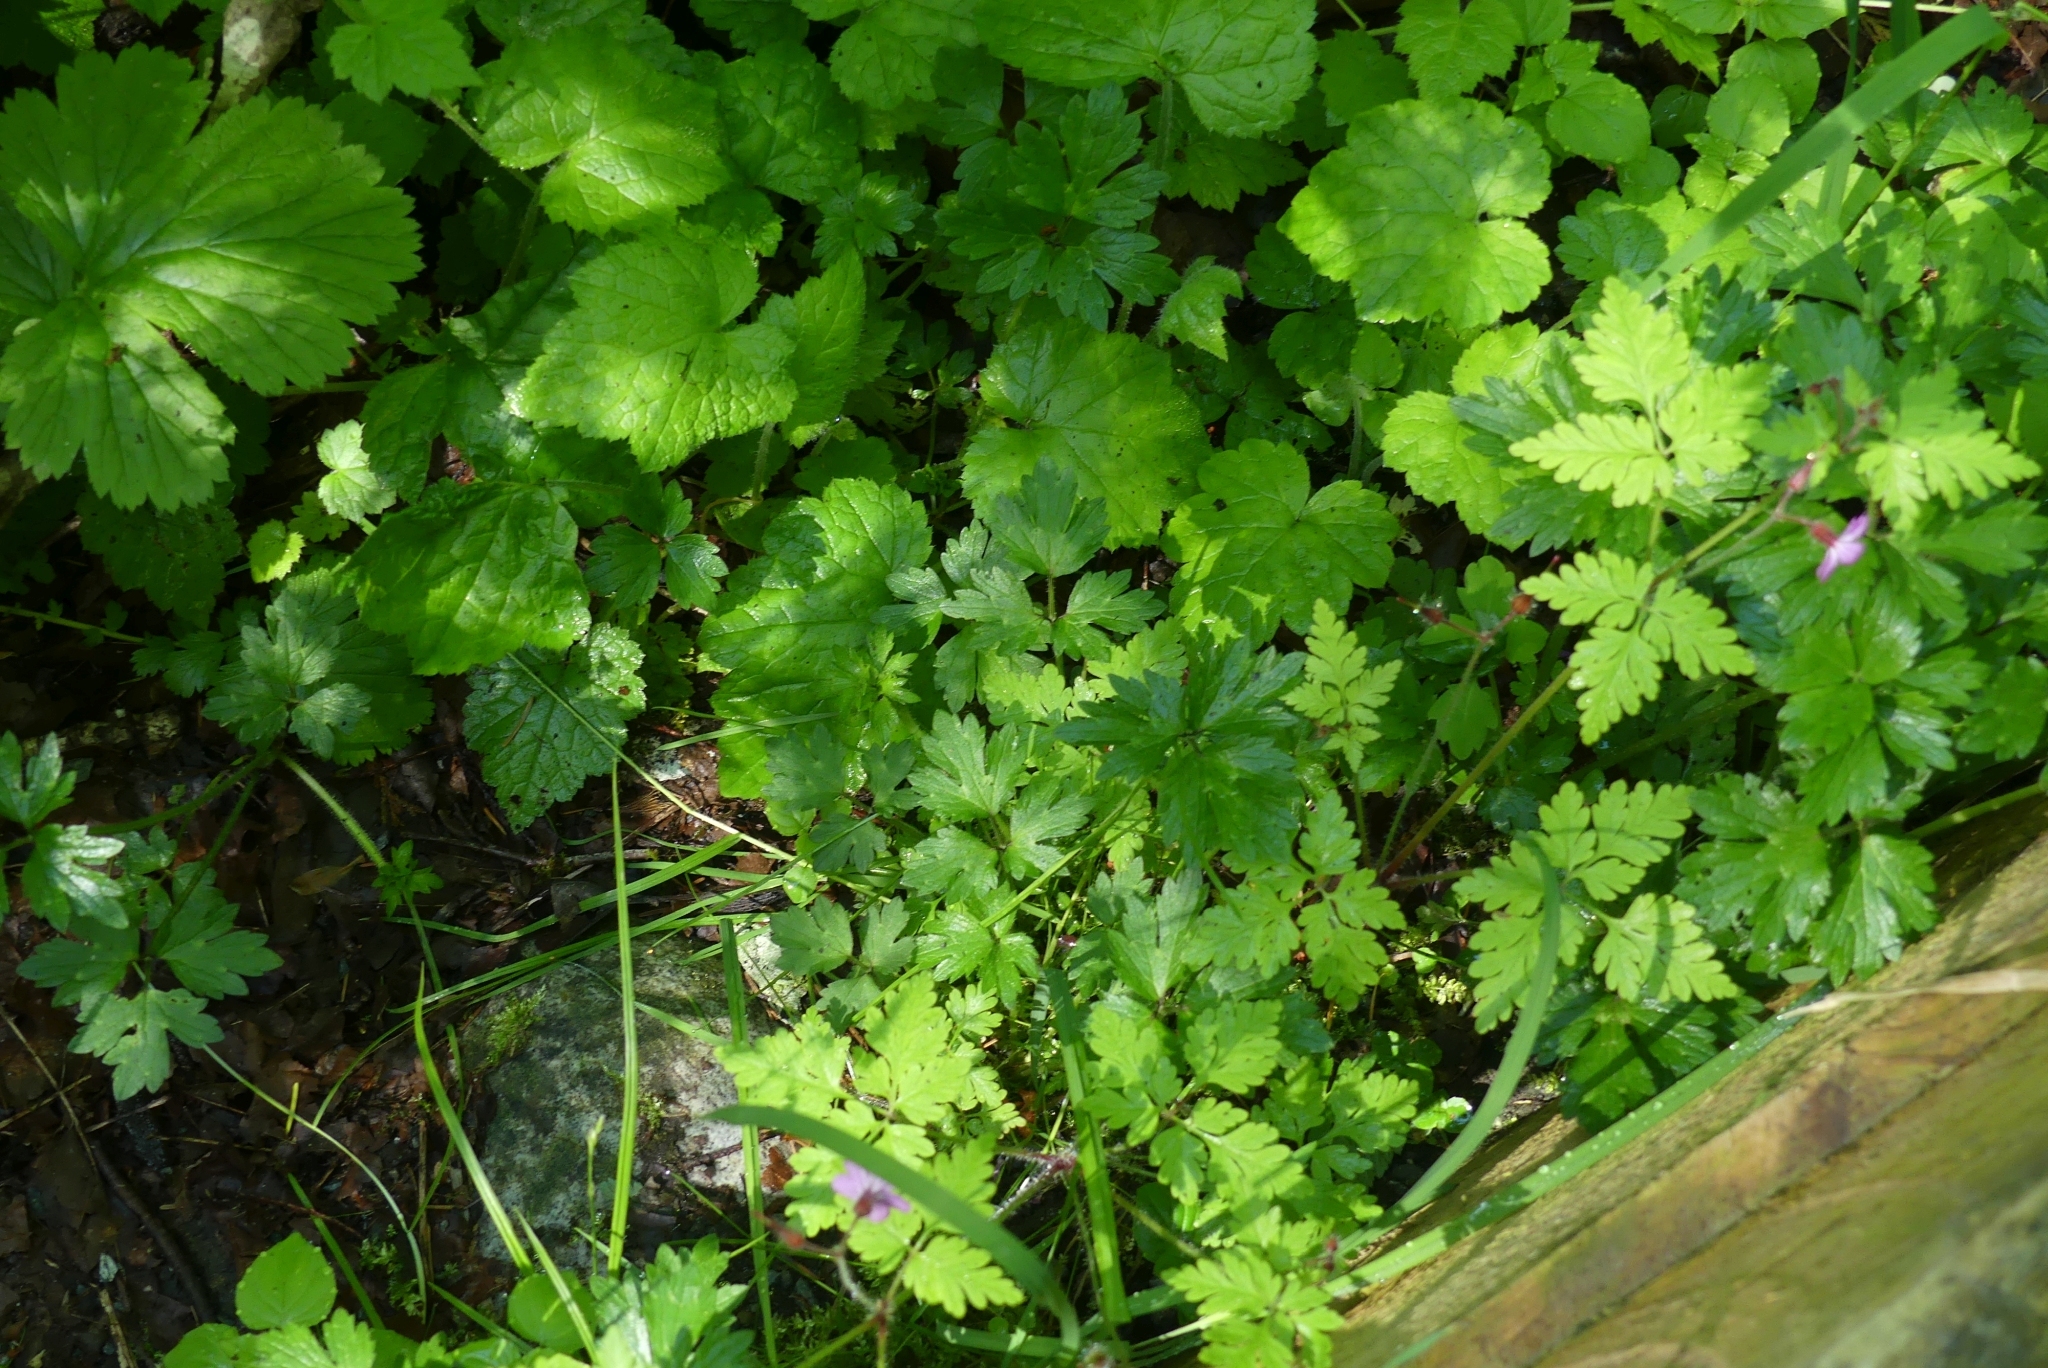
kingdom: Plantae
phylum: Tracheophyta
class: Magnoliopsida
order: Ranunculales
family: Ranunculaceae
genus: Ranunculus
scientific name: Ranunculus repens
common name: Creeping buttercup
